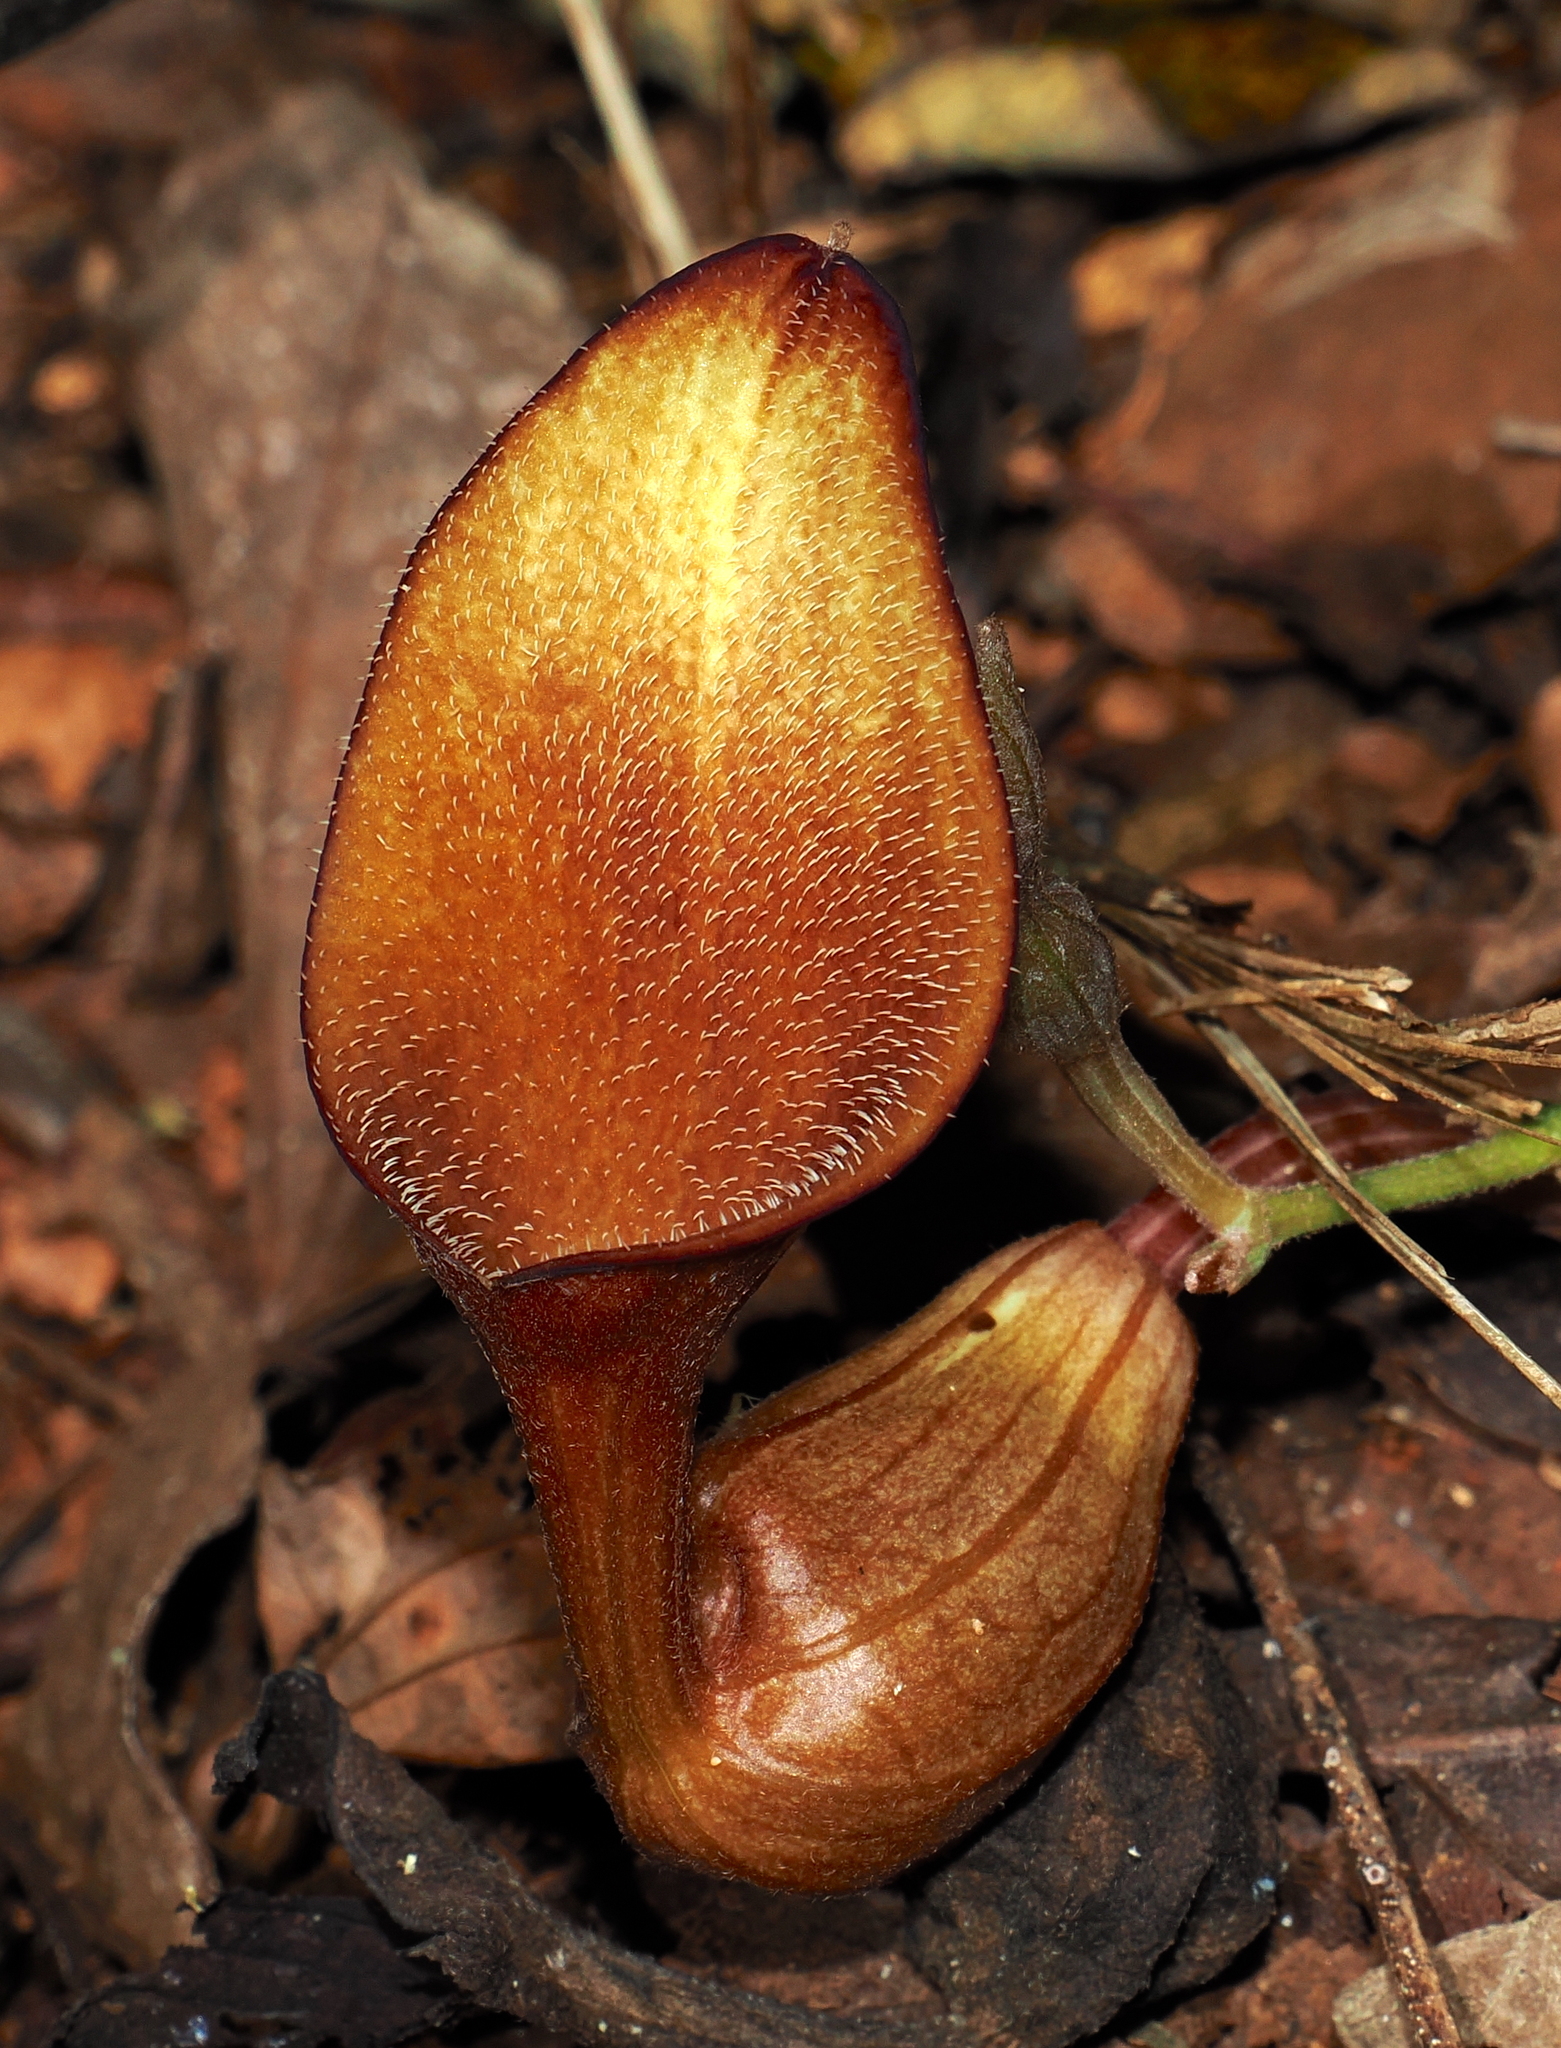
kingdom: Plantae
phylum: Tracheophyta
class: Magnoliopsida
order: Piperales
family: Aristolochiaceae
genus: Aristolochia
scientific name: Aristolochia maxima
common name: Florida dutchman's pipe
